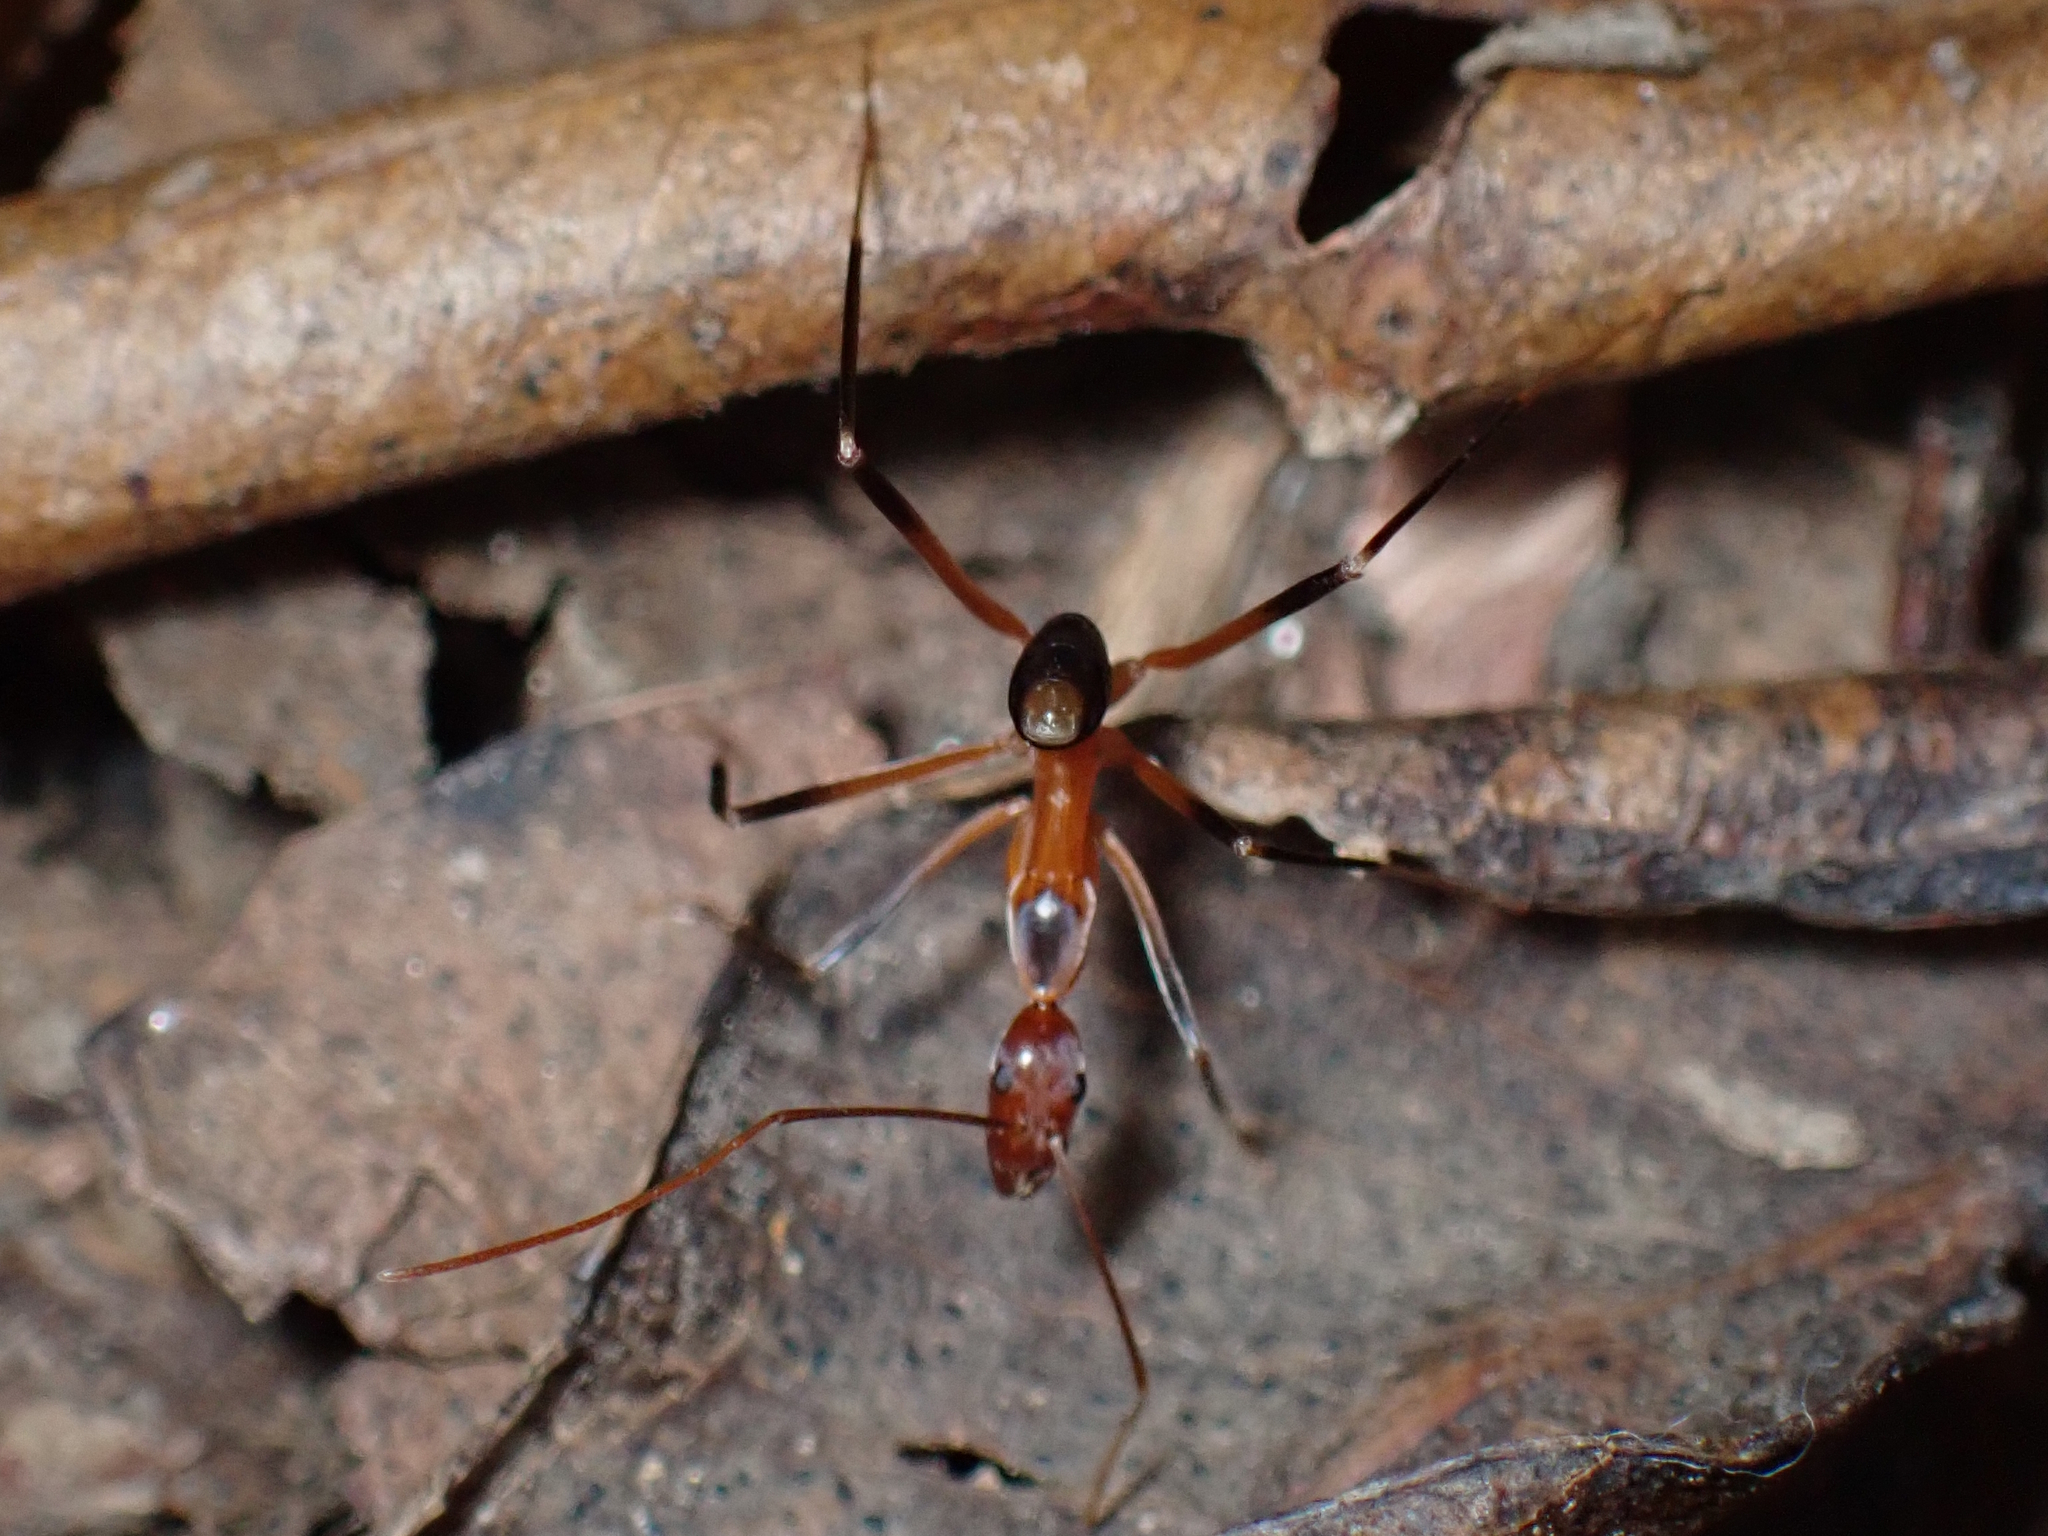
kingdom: Animalia
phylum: Arthropoda
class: Insecta
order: Hymenoptera
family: Formicidae
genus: Leptomyrmex
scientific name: Leptomyrmex cnemidatus
